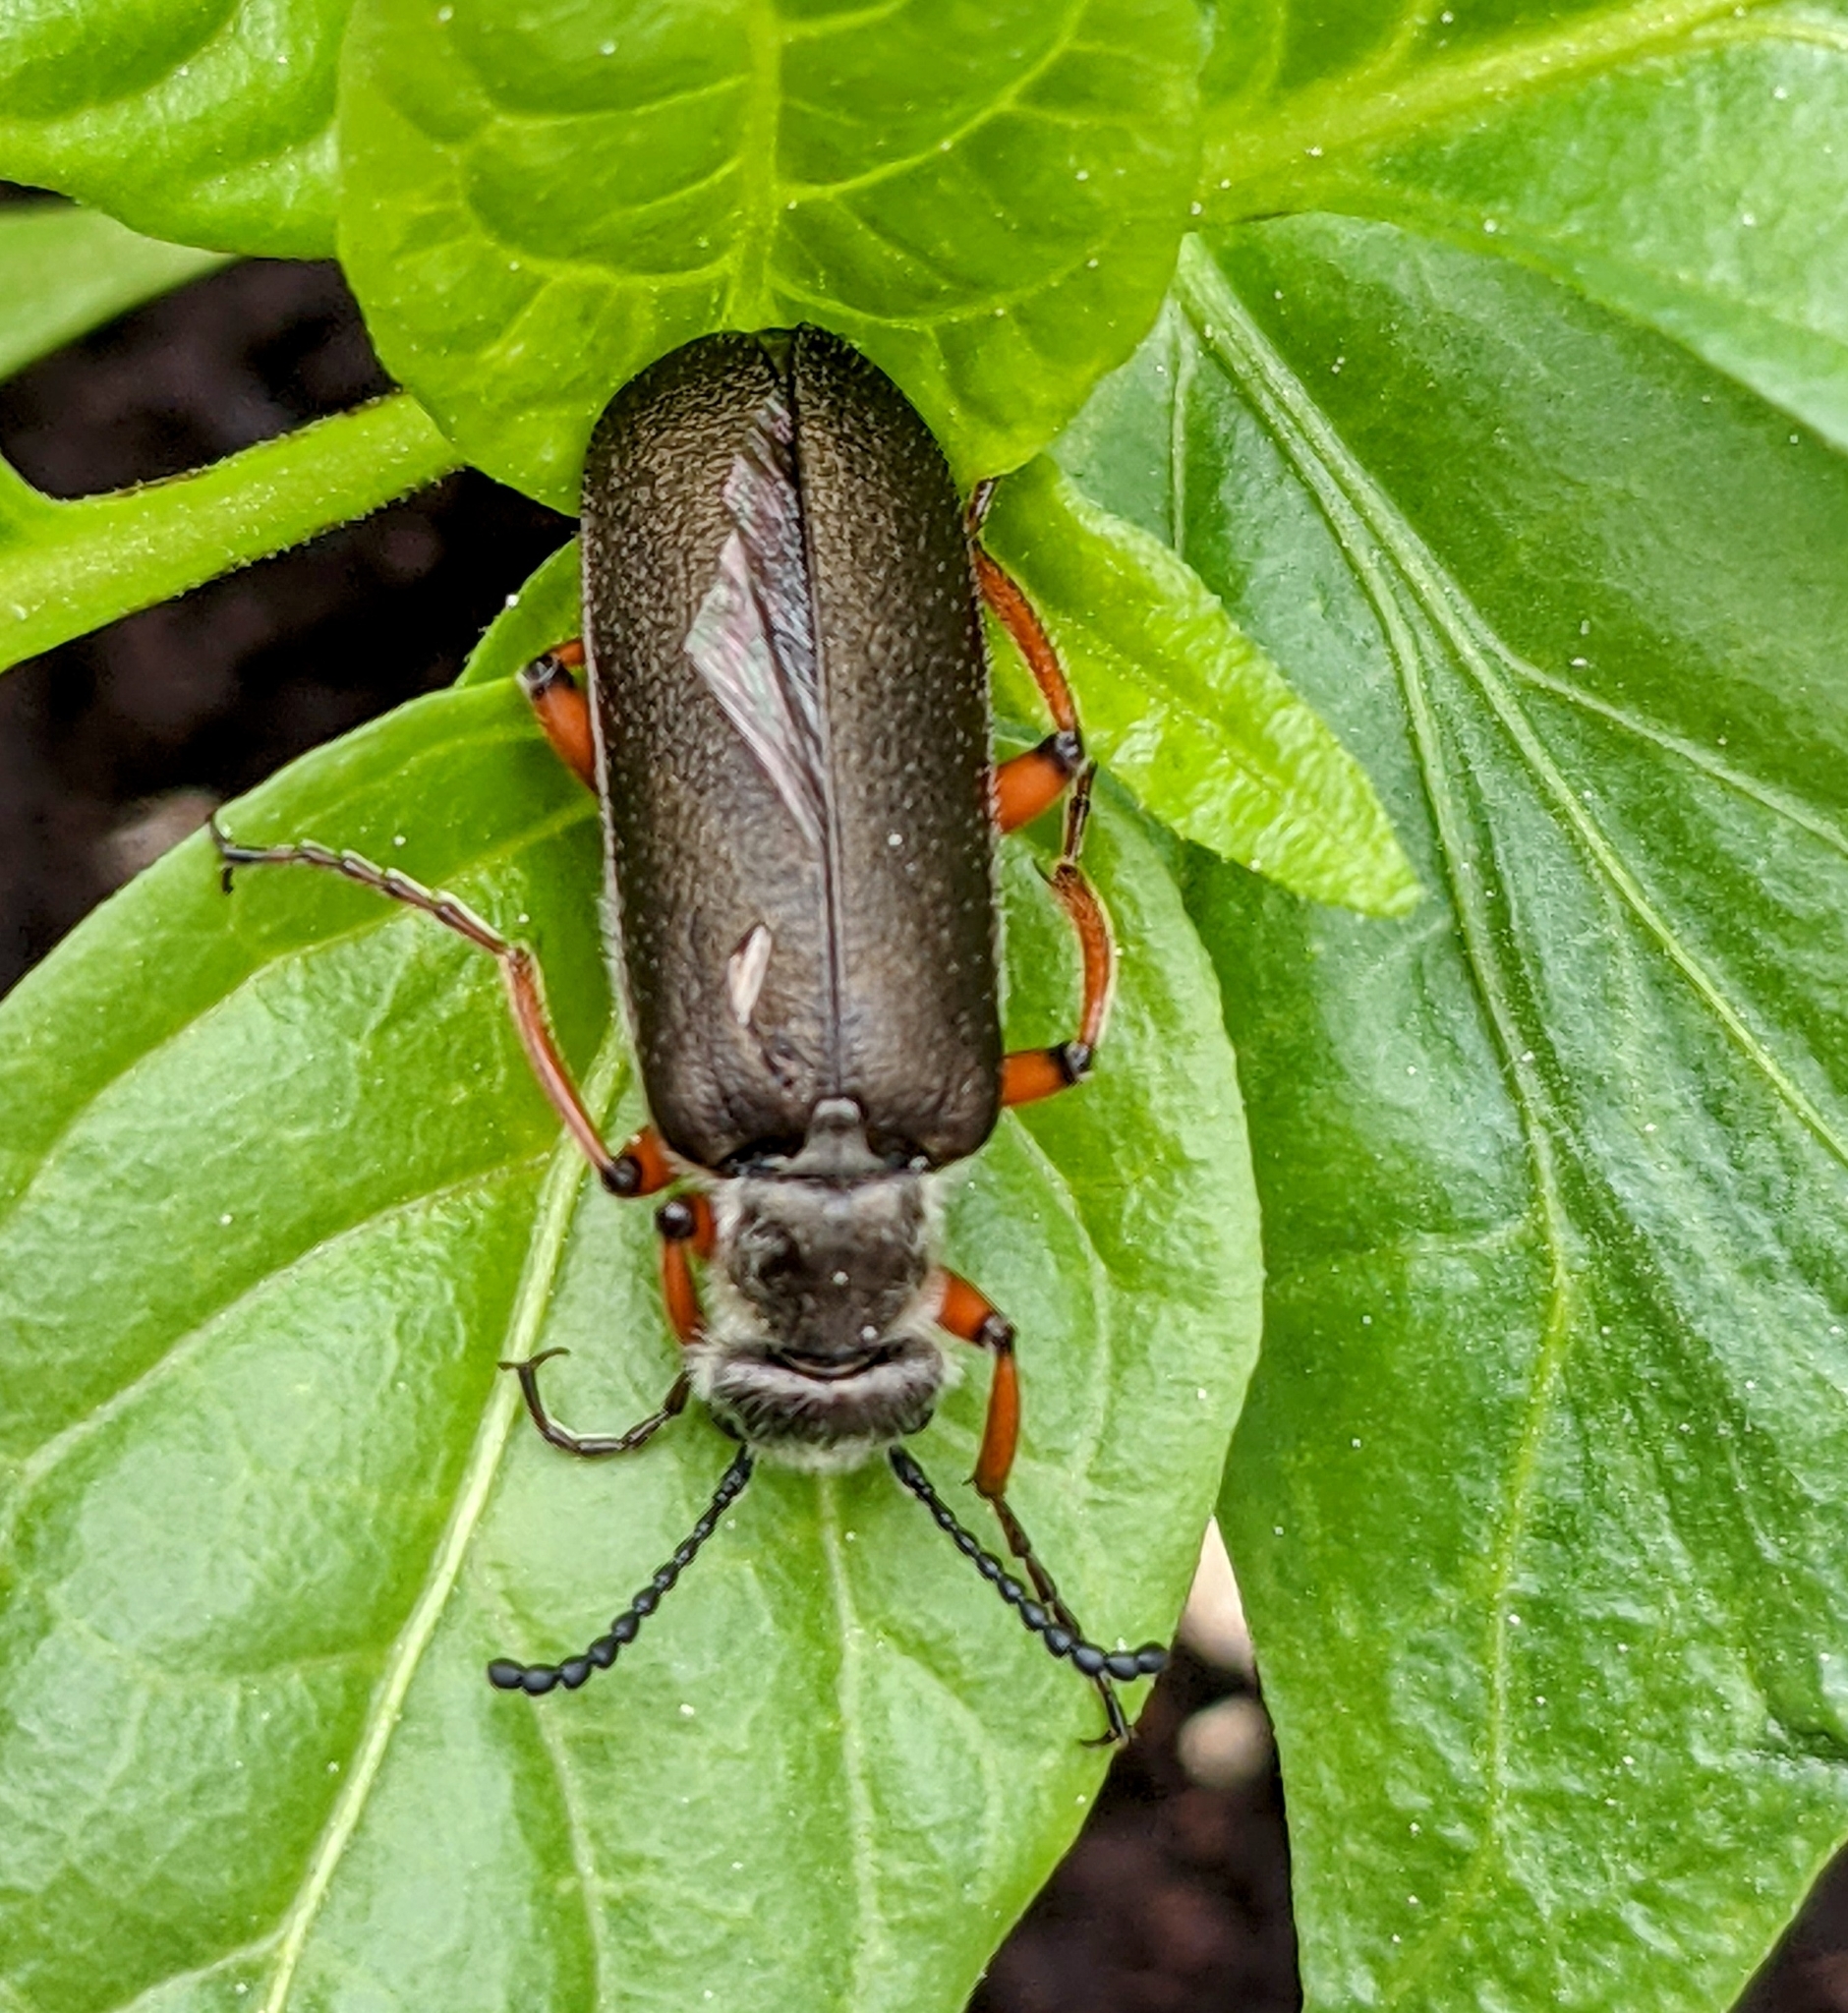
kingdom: Animalia
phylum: Arthropoda
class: Insecta
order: Coleoptera
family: Meloidae
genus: Lytta
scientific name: Lytta aenea
